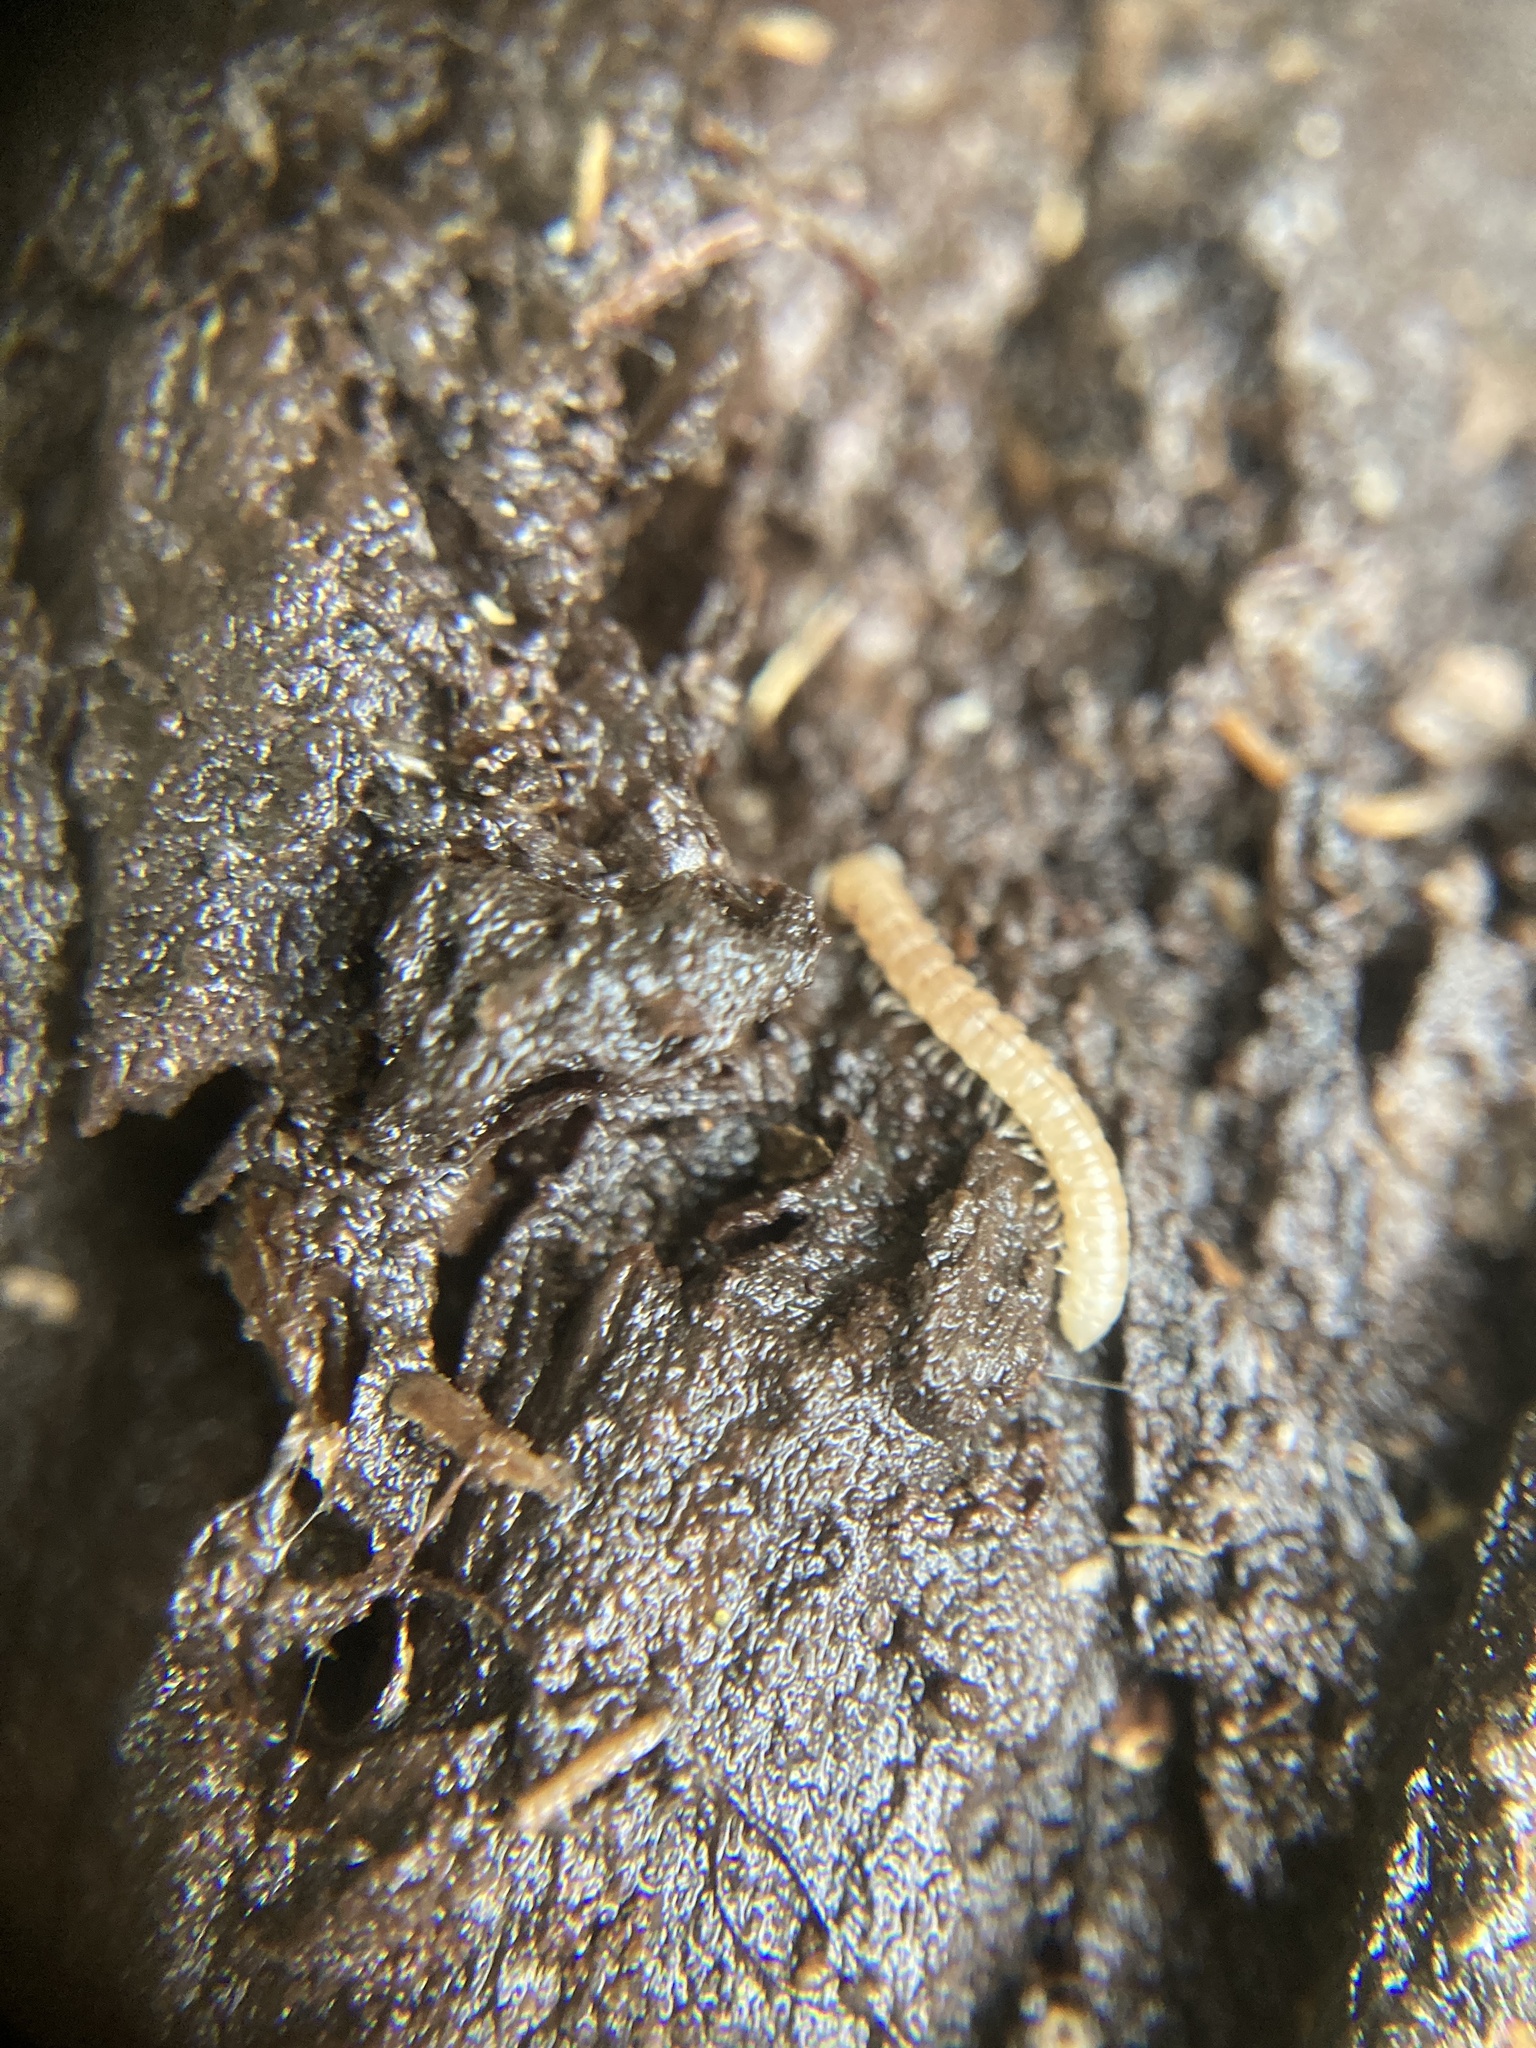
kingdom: Animalia
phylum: Arthropoda
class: Diplopoda
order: Polydesmida
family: Paradoxosomatidae
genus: Oxidus
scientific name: Oxidus gracilis
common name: Greenhouse millipede
